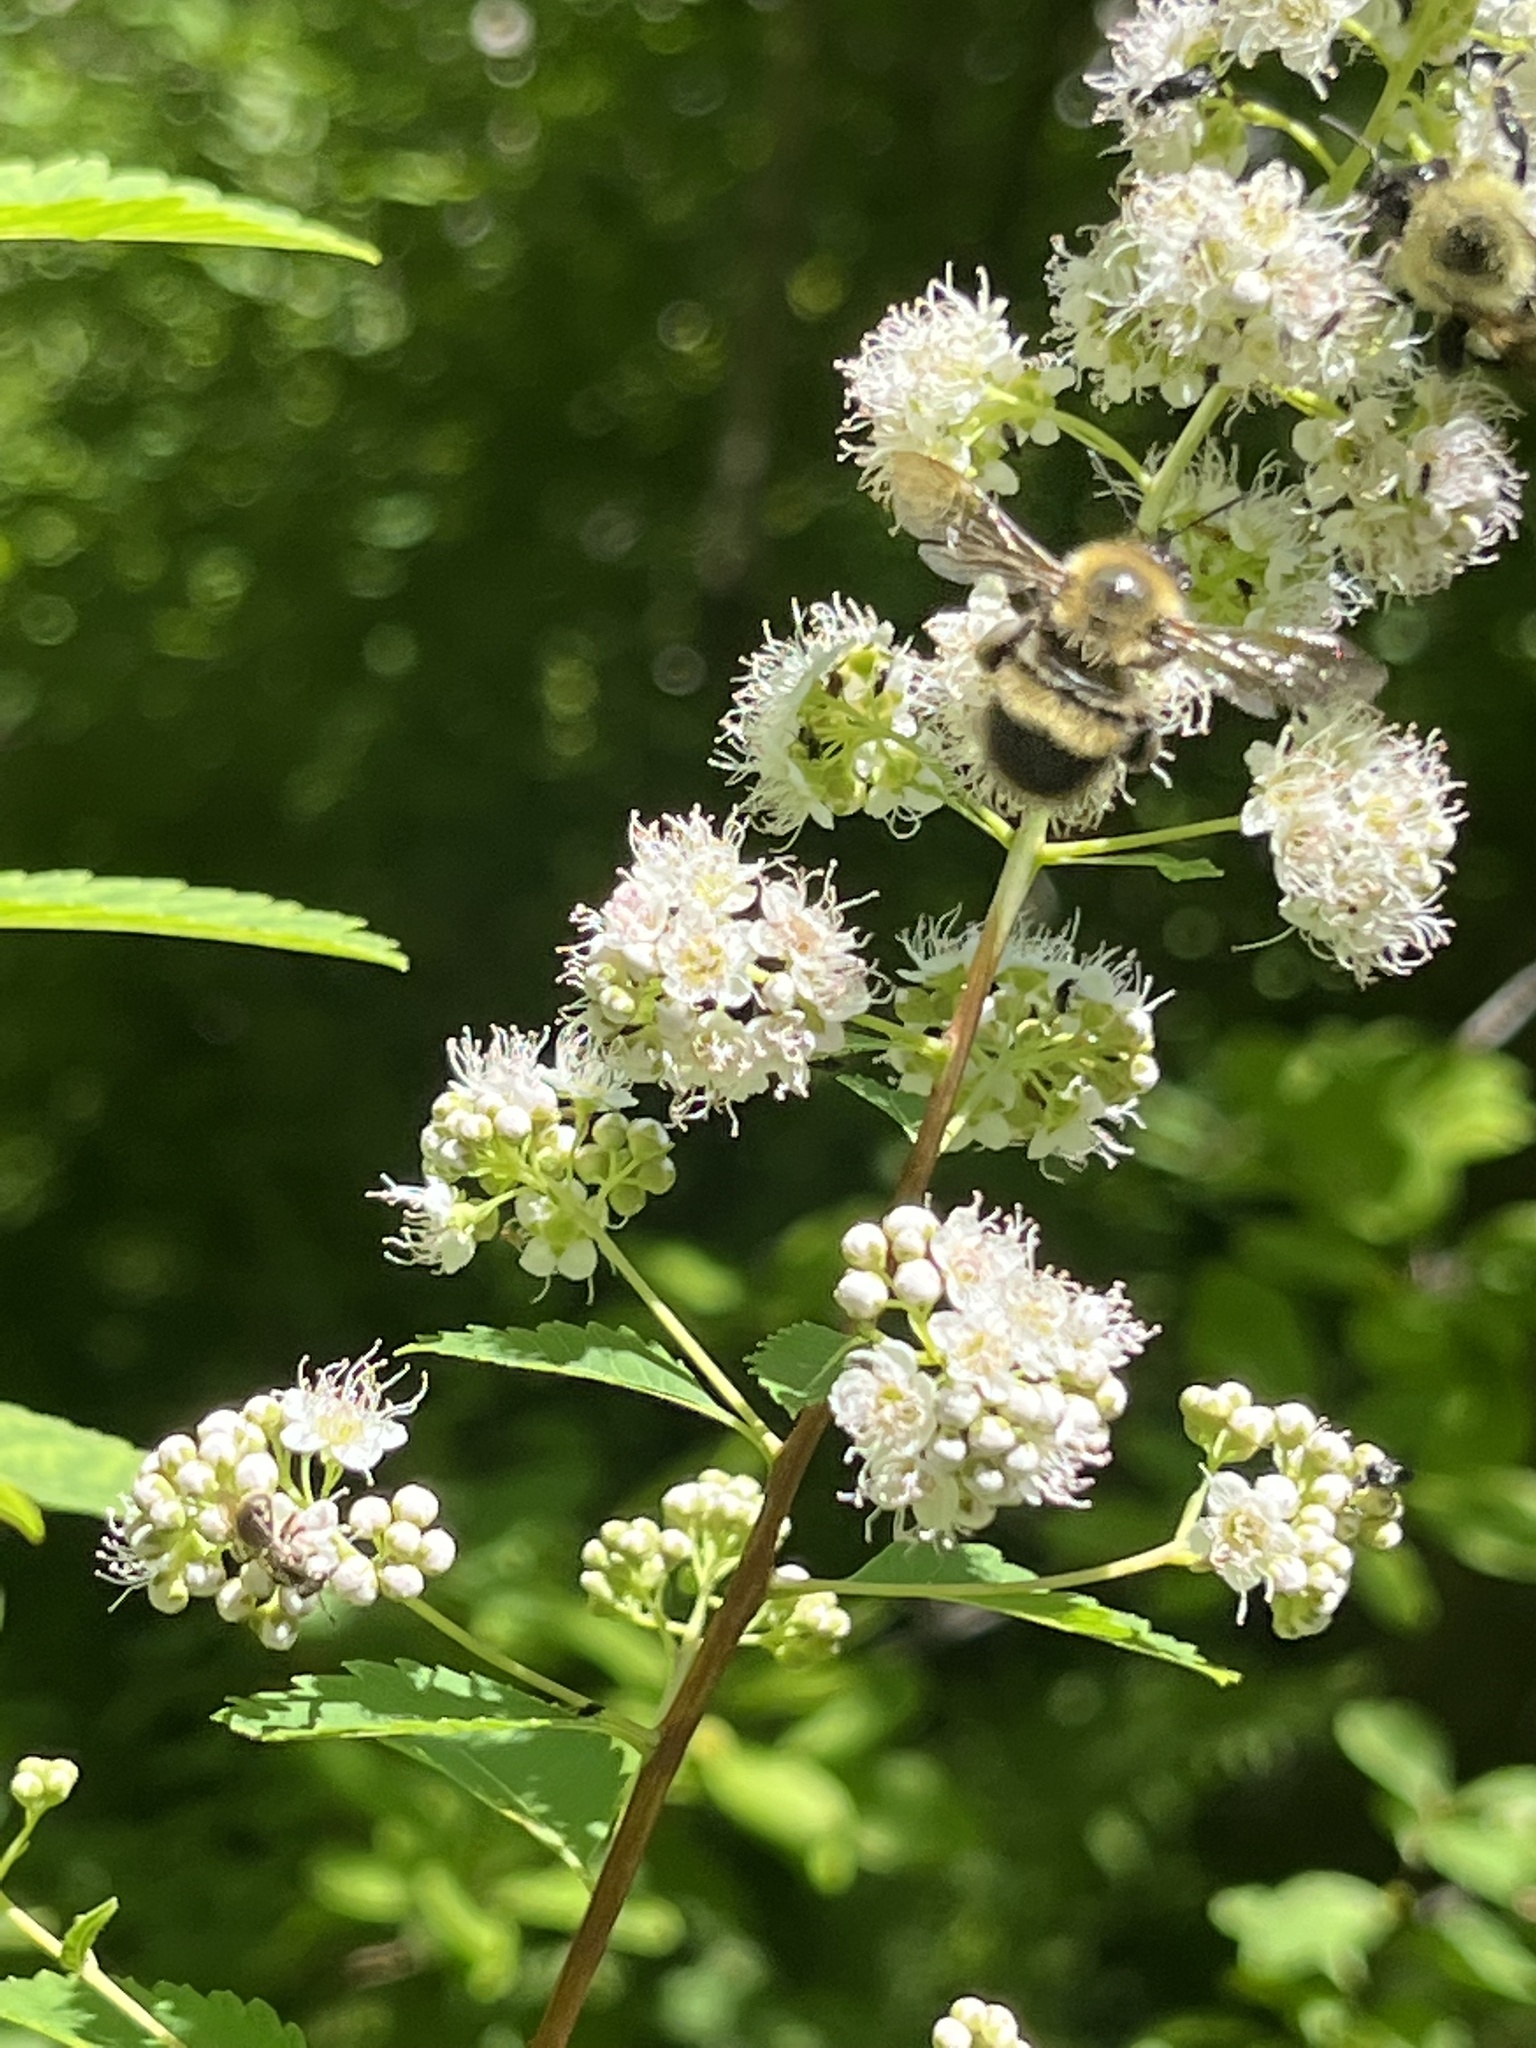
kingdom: Animalia
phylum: Arthropoda
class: Insecta
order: Hymenoptera
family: Apidae
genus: Pyrobombus
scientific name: Pyrobombus
